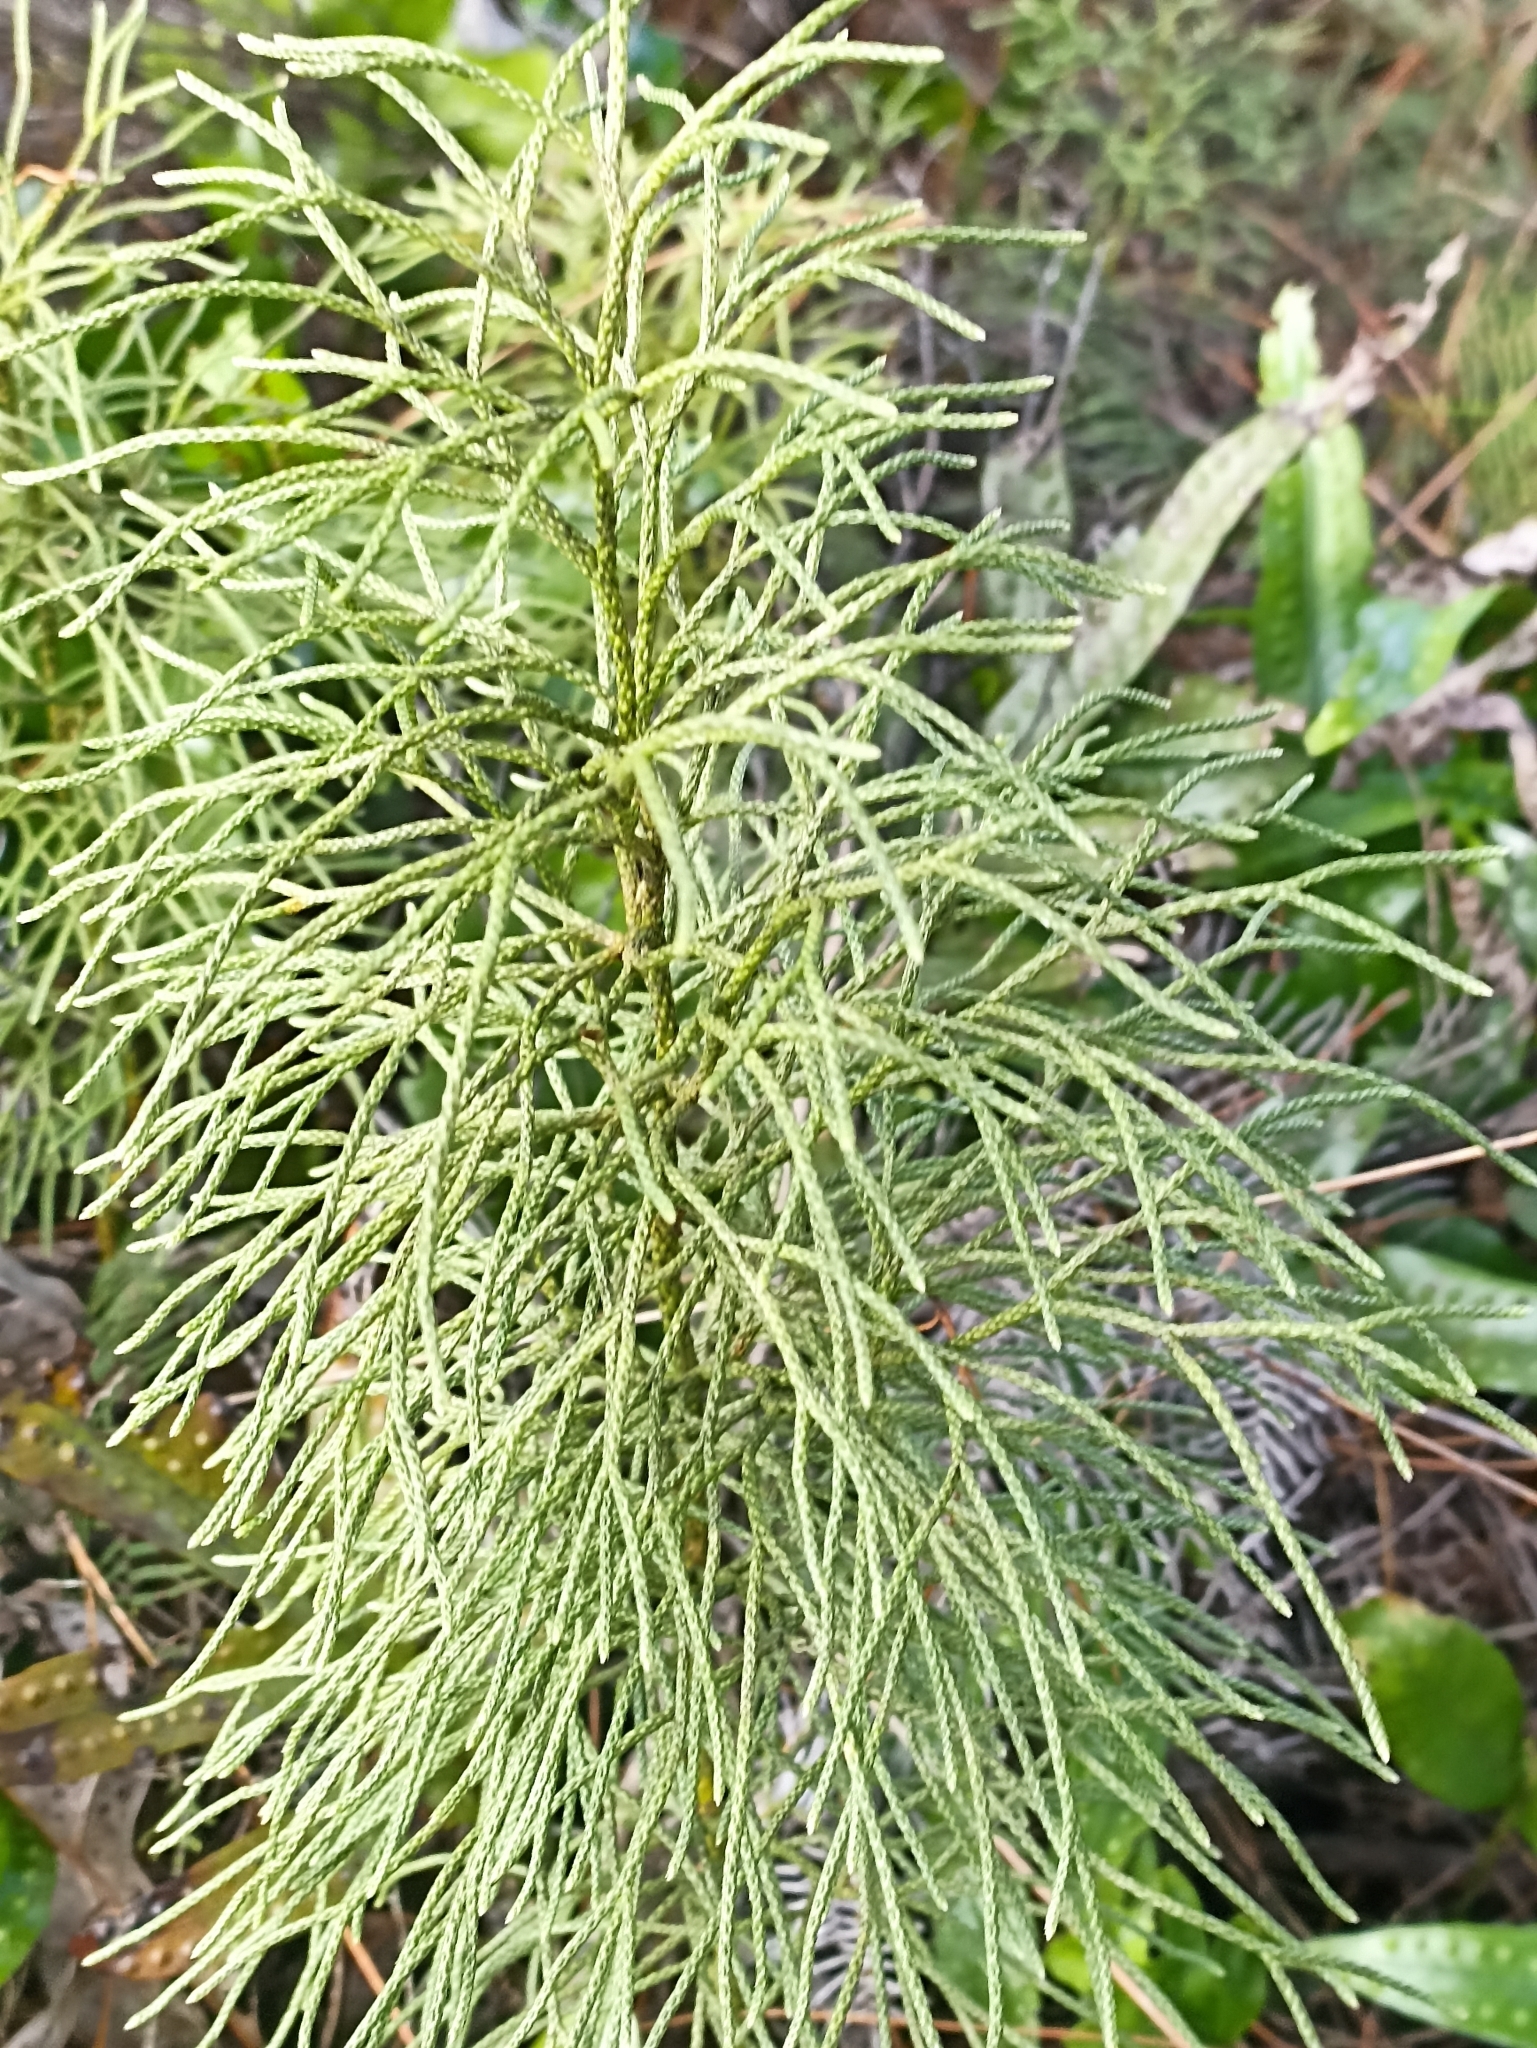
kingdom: Plantae
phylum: Tracheophyta
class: Lycopodiopsida
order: Lycopodiales
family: Lycopodiaceae
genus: Pseudolycopodium
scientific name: Pseudolycopodium densum
